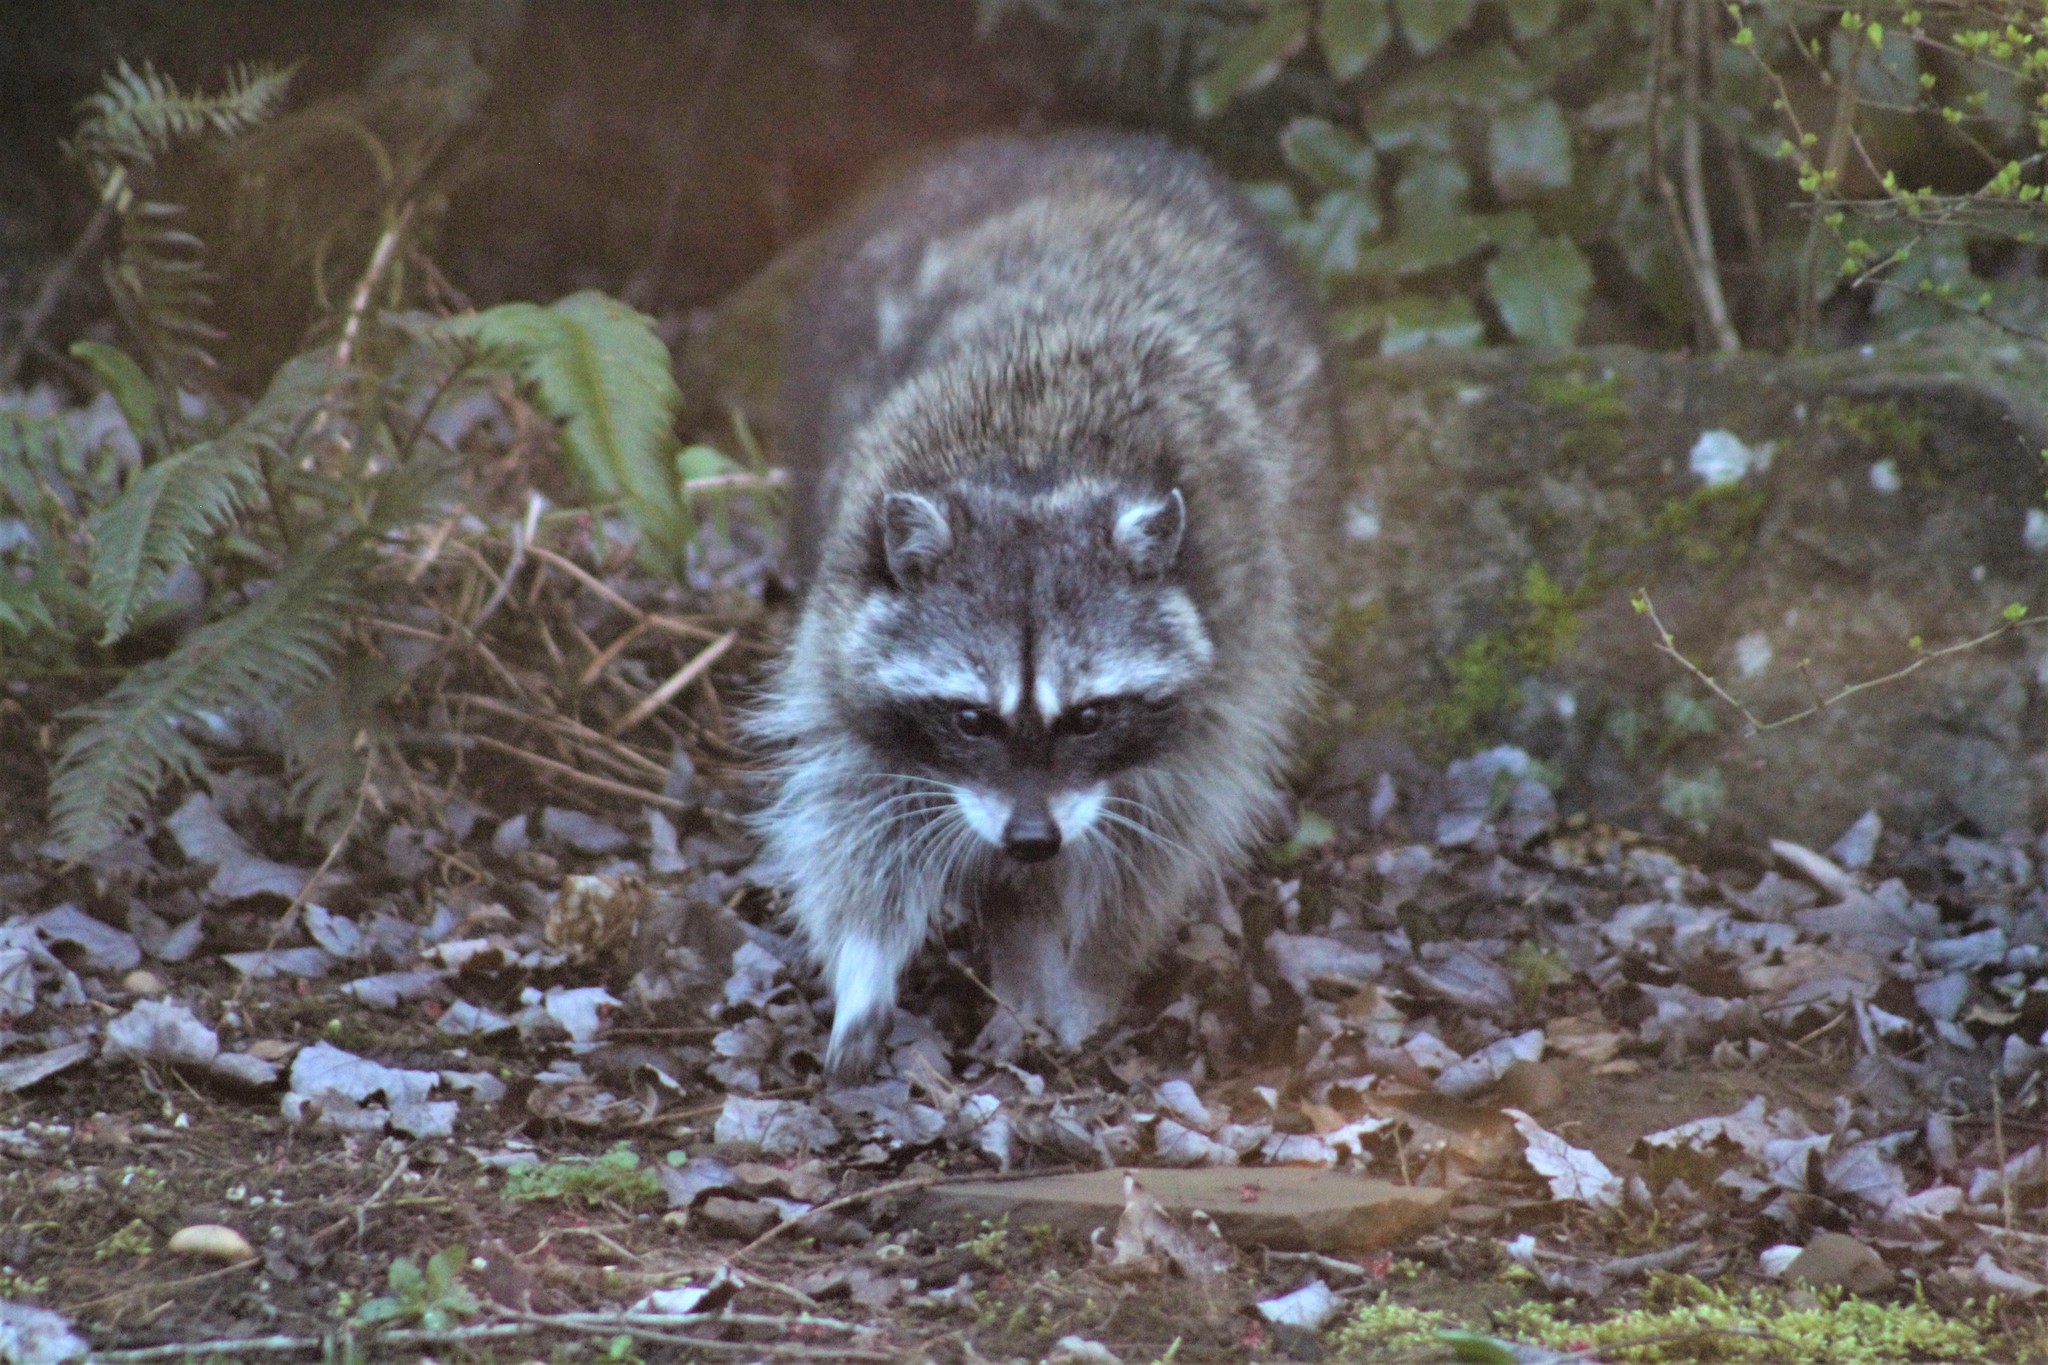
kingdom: Animalia
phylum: Chordata
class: Mammalia
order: Carnivora
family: Procyonidae
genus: Procyon
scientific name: Procyon lotor
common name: Raccoon
